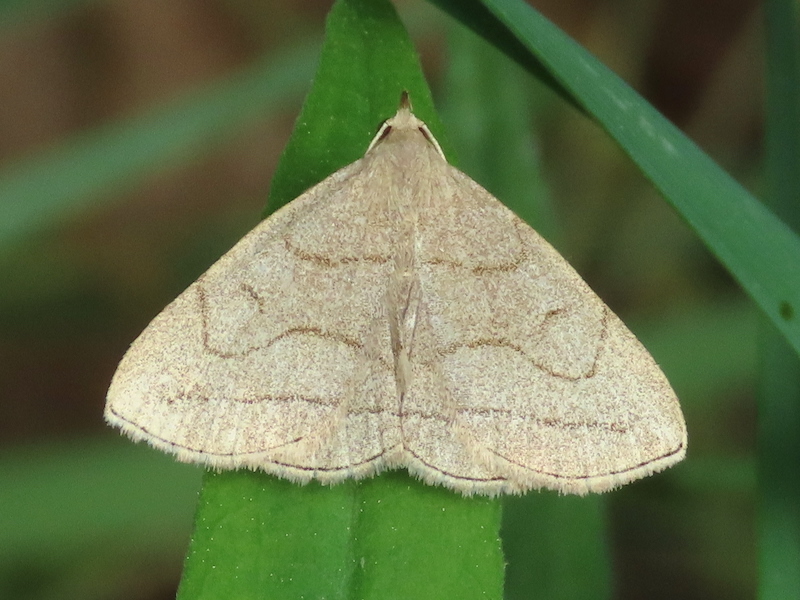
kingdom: Animalia
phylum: Arthropoda
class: Insecta
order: Lepidoptera
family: Erebidae
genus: Zanclognatha
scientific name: Zanclognatha pedipilalis
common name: Grayish fan-foot
